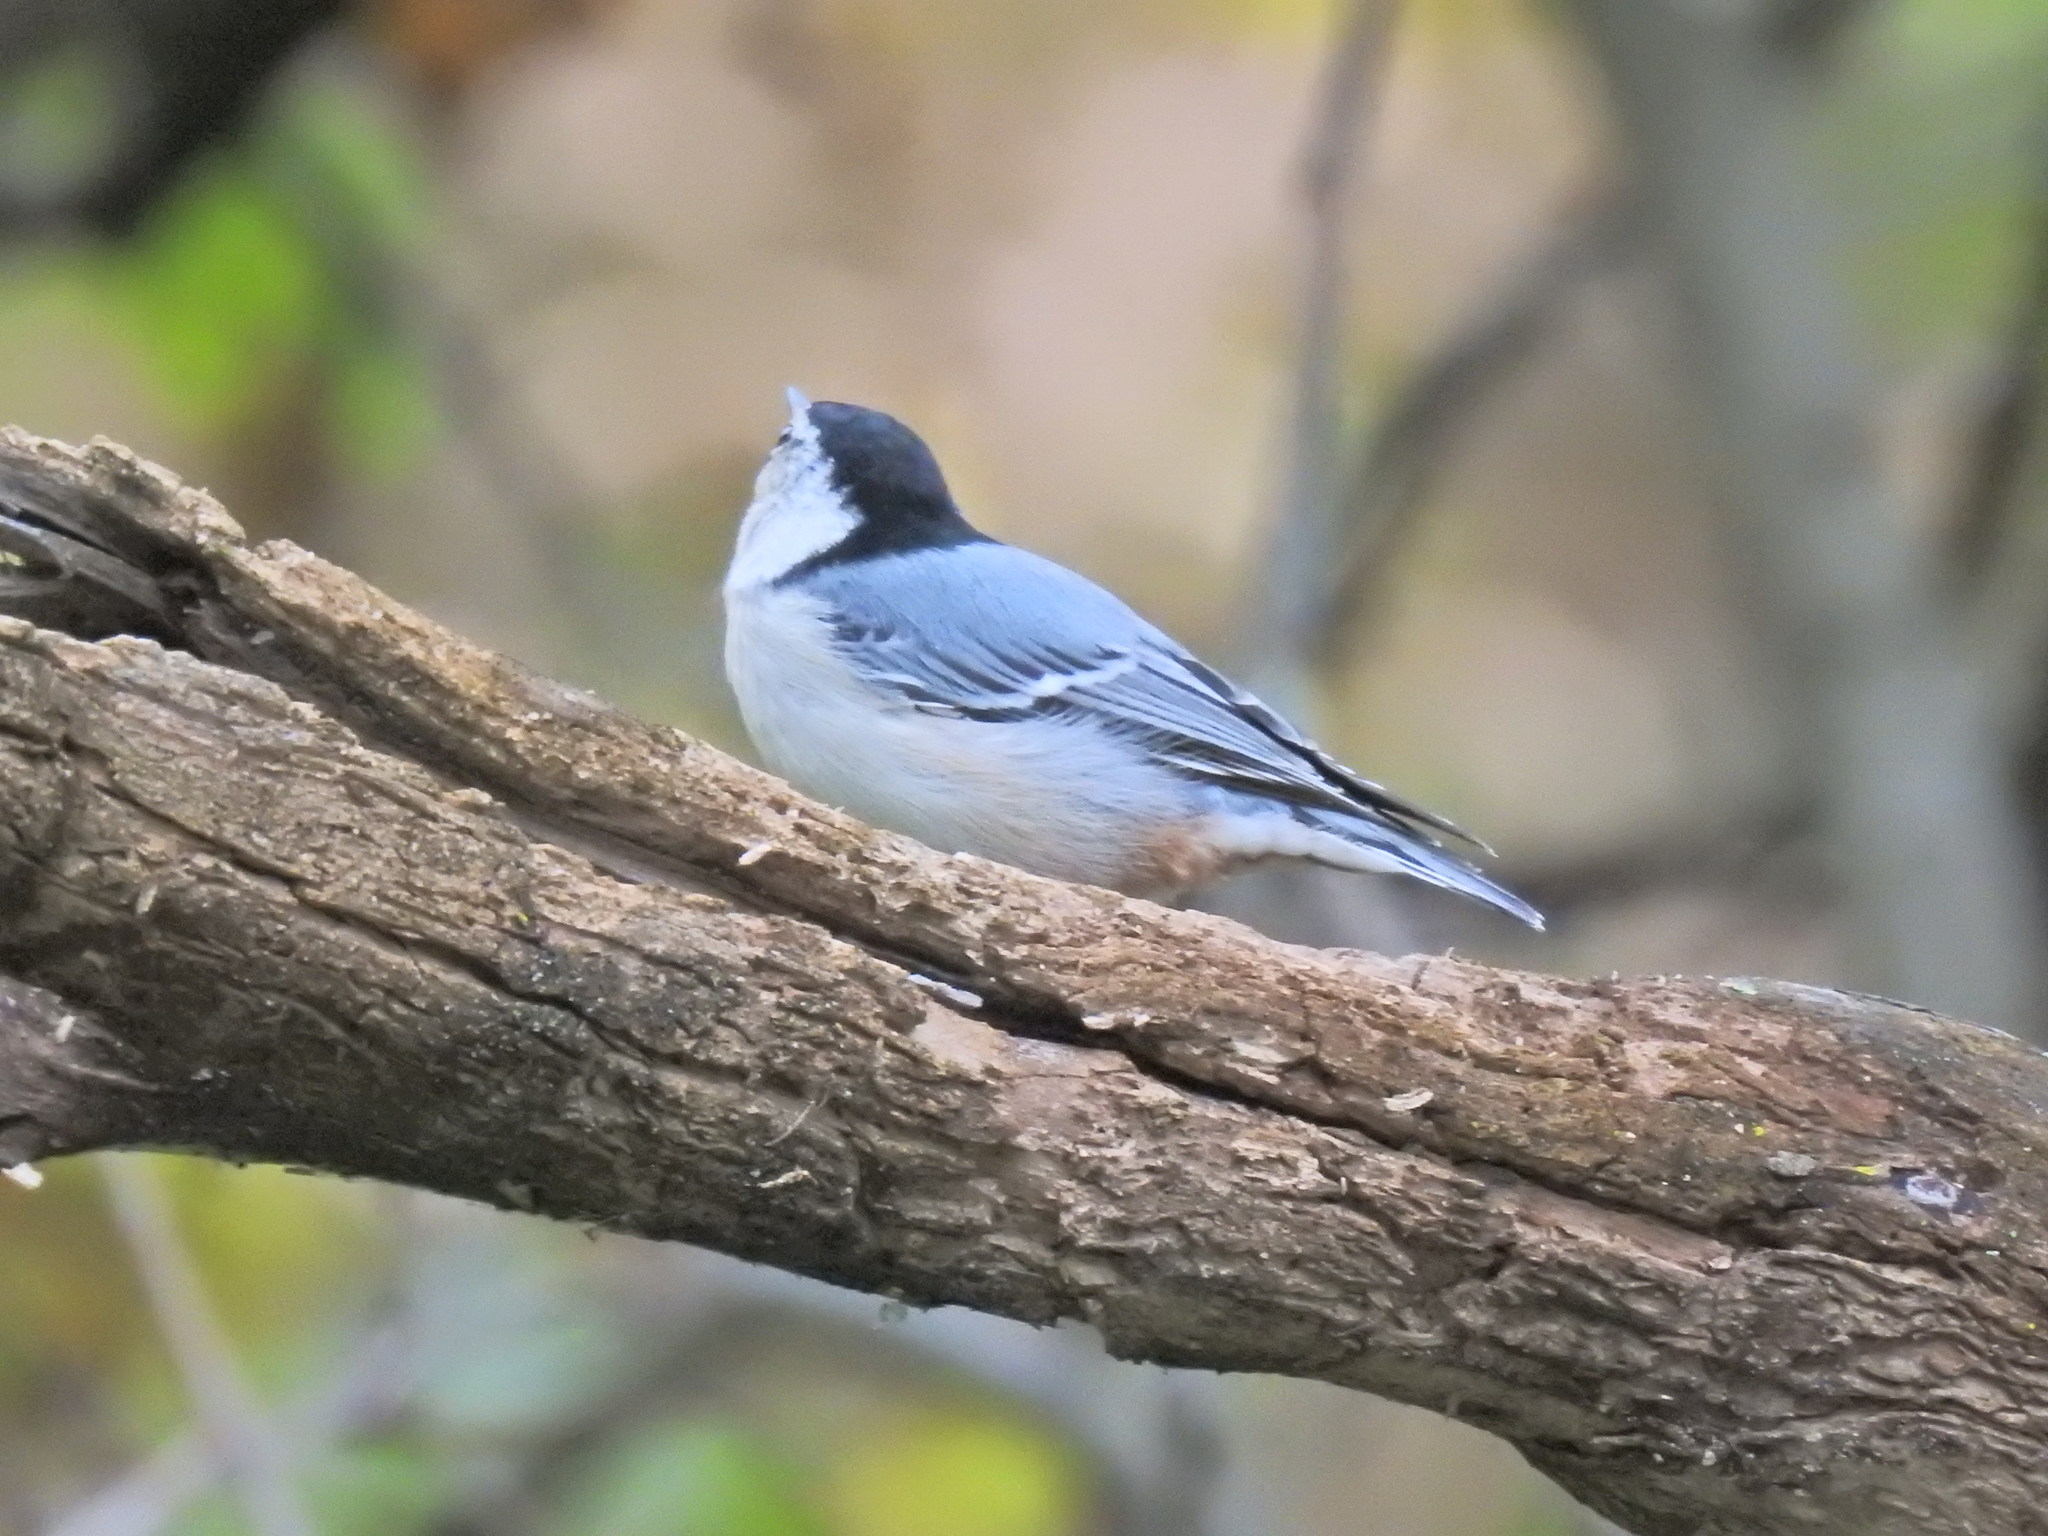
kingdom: Animalia
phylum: Chordata
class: Aves
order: Passeriformes
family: Sittidae
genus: Sitta
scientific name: Sitta carolinensis
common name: White-breasted nuthatch
